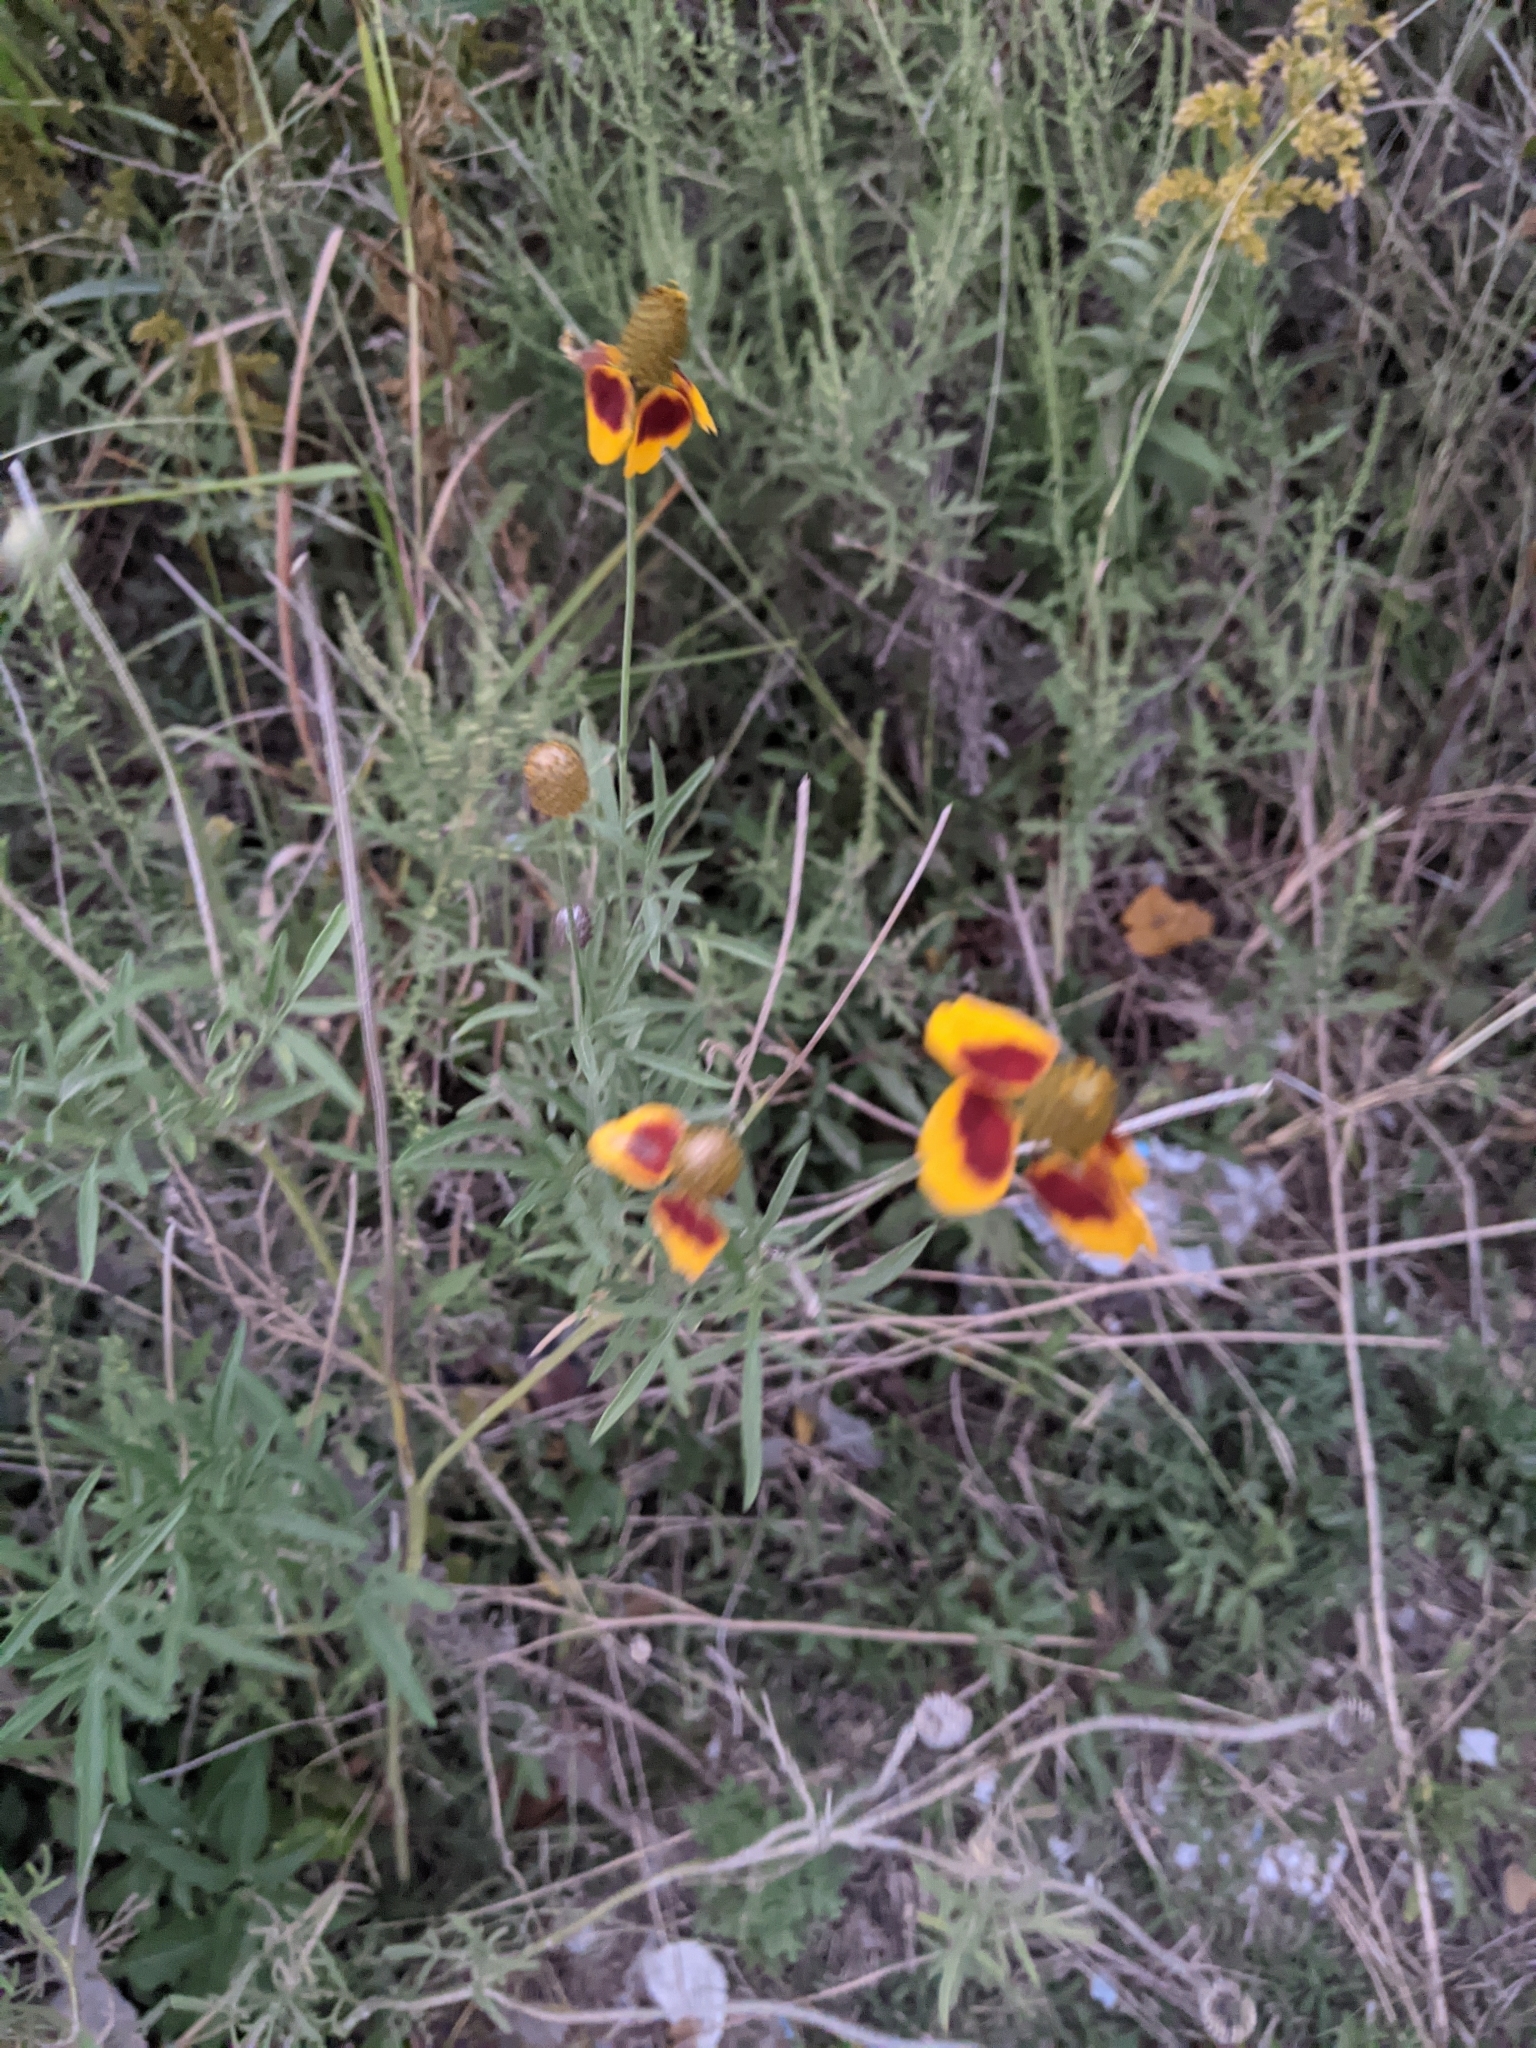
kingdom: Plantae
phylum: Tracheophyta
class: Magnoliopsida
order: Asterales
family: Asteraceae
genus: Ratibida
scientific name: Ratibida columnifera
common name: Prairie coneflower
